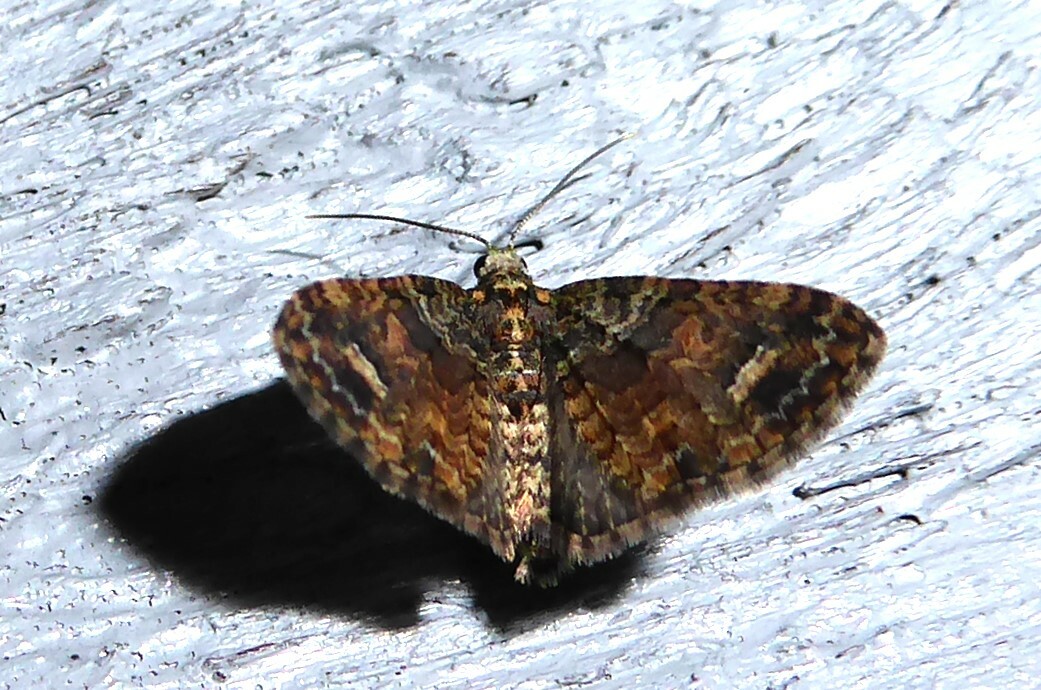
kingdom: Animalia
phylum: Arthropoda
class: Insecta
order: Lepidoptera
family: Geometridae
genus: Idaea
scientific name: Idaea mutanda
